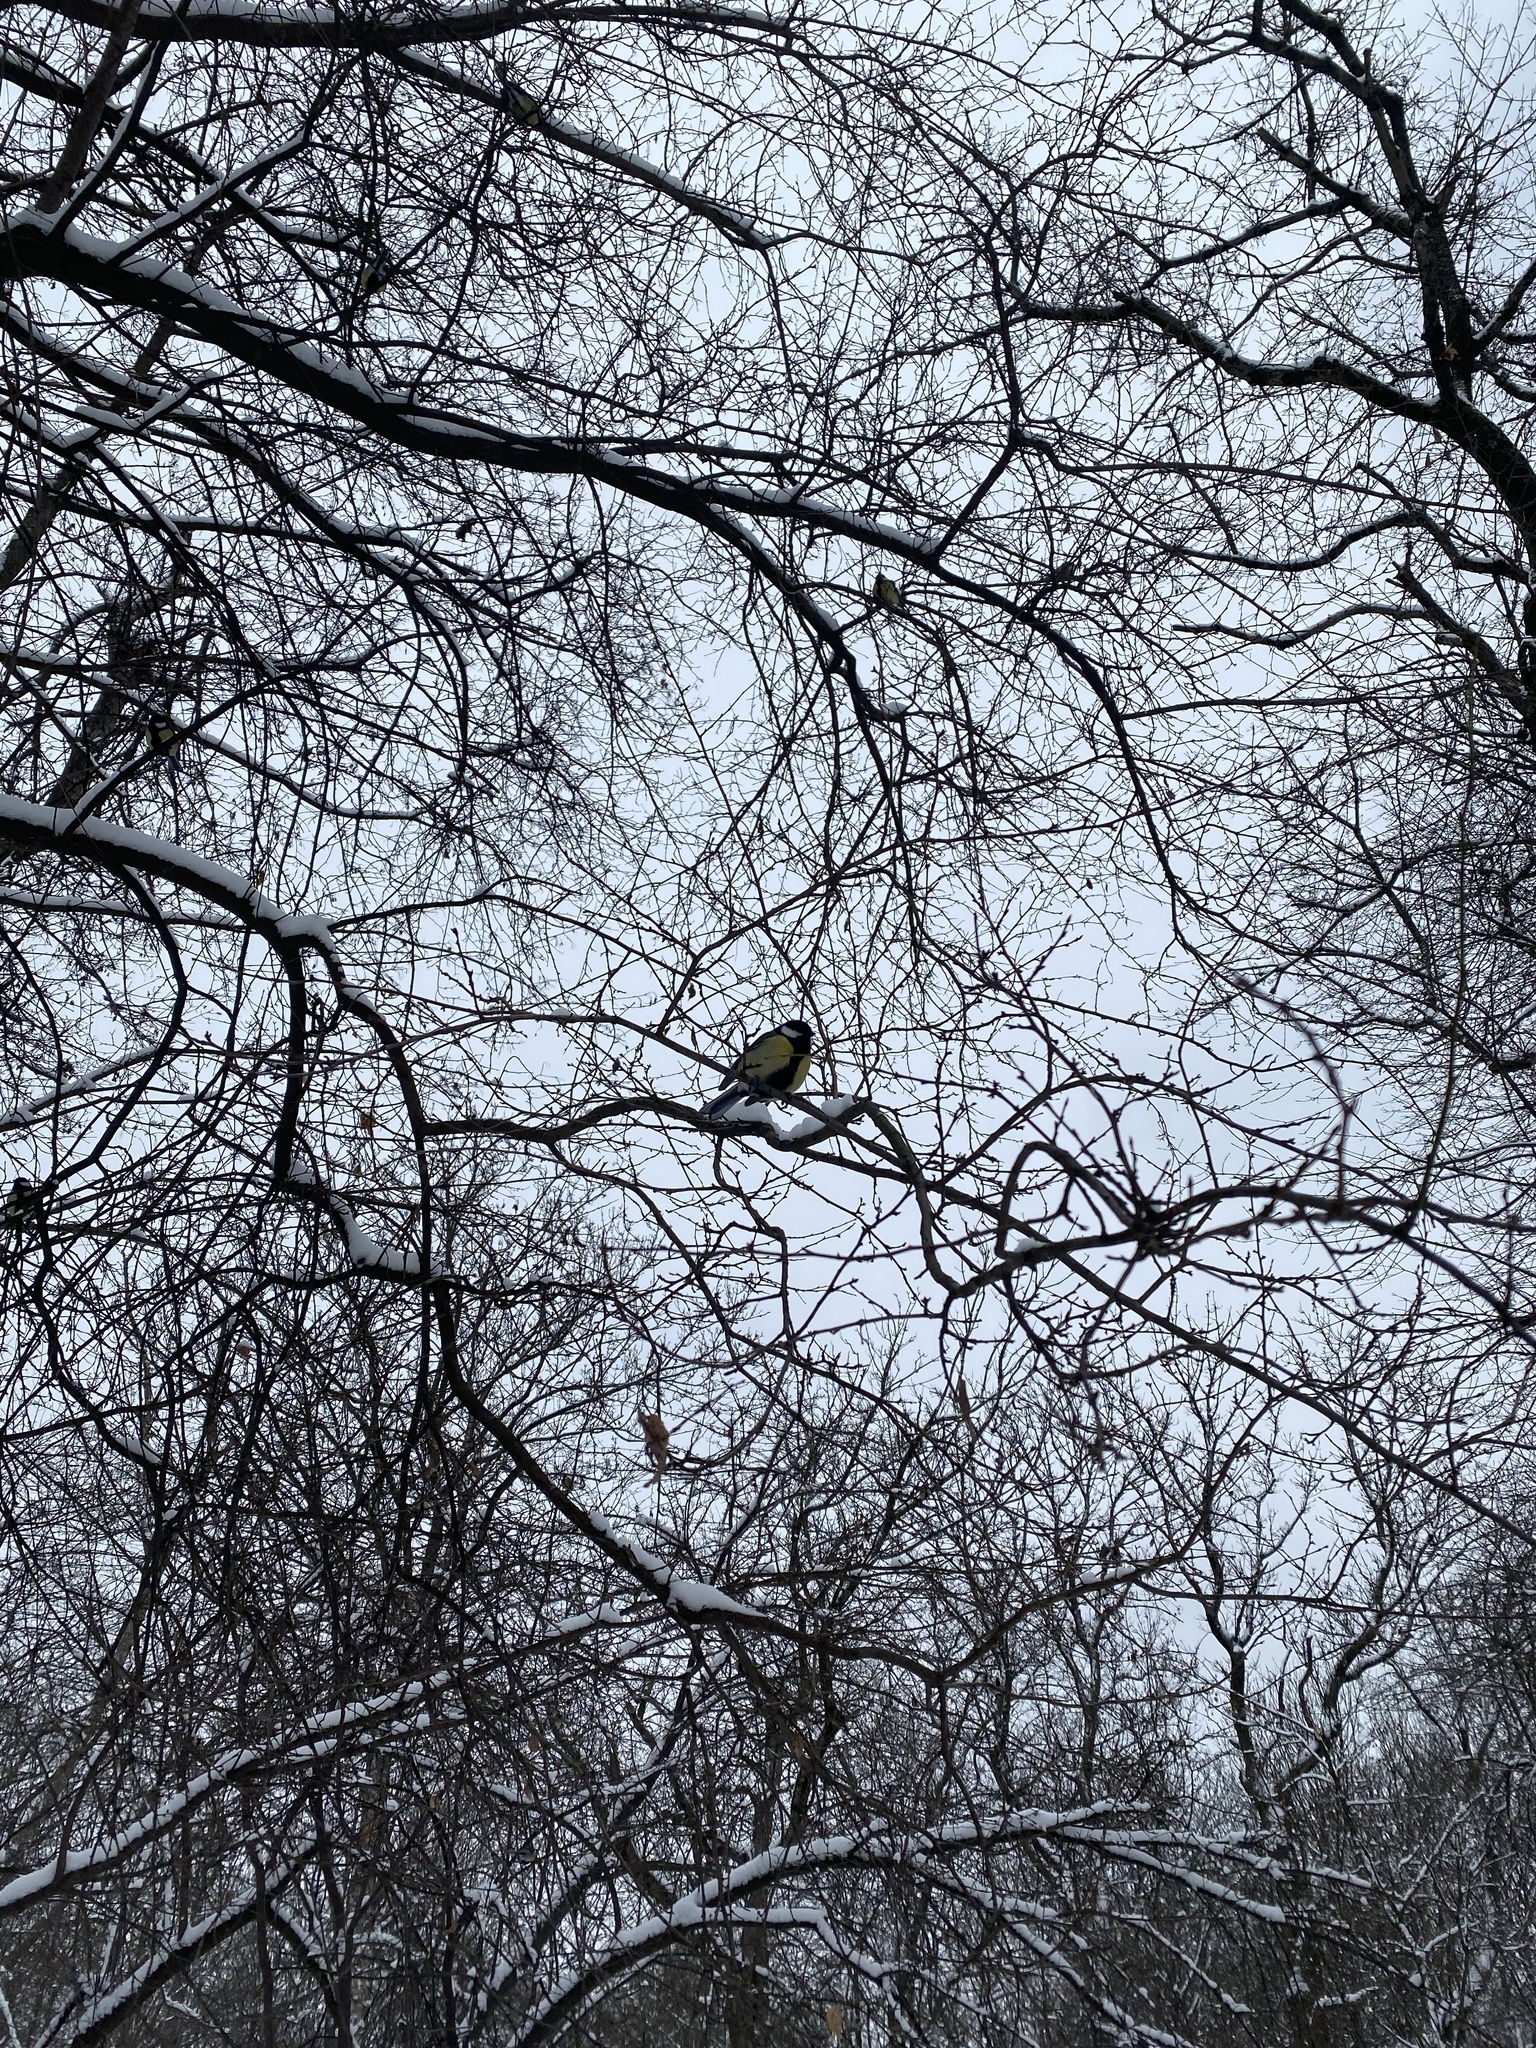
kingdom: Animalia
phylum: Chordata
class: Aves
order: Passeriformes
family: Paridae
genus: Parus
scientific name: Parus major
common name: Great tit
